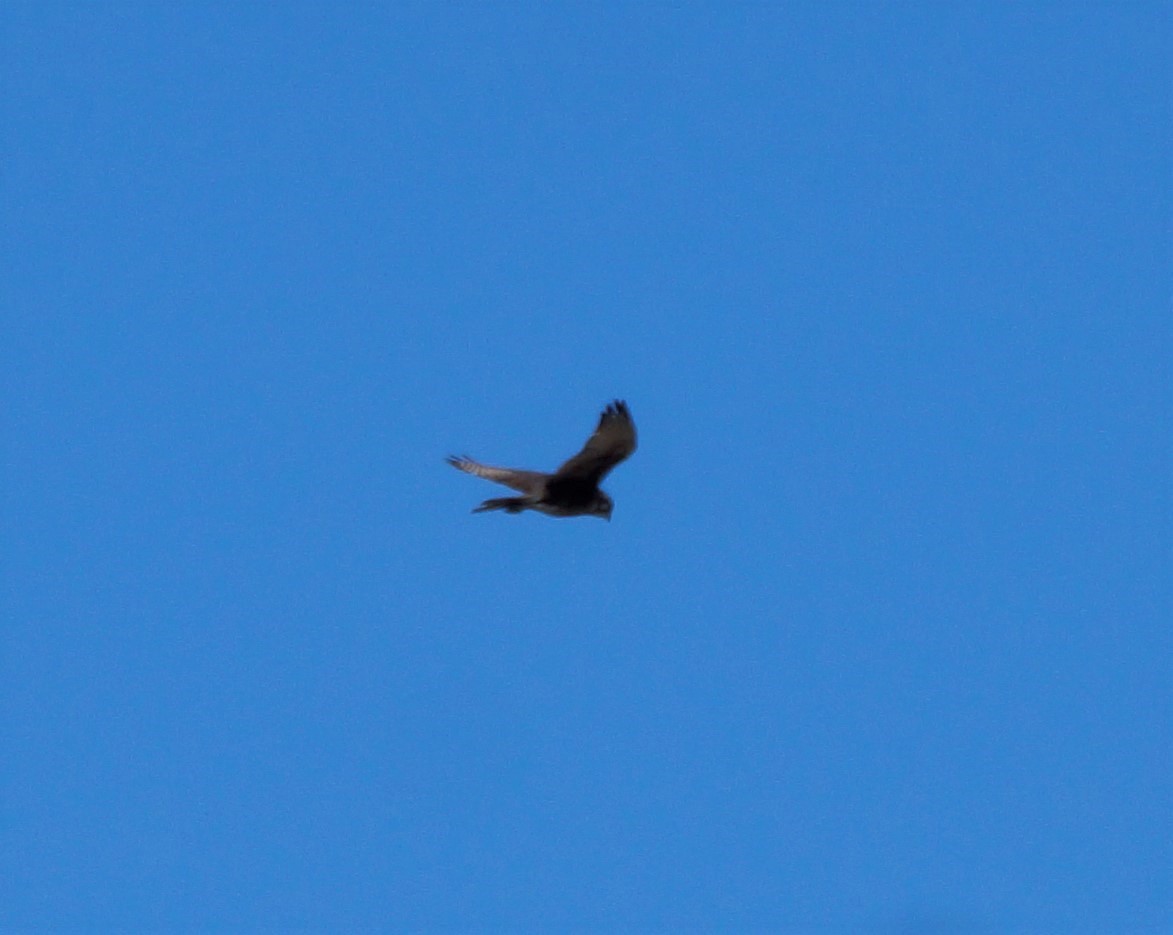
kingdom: Animalia
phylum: Chordata
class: Aves
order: Accipitriformes
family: Accipitridae
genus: Circus
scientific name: Circus approximans
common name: Swamp harrier
